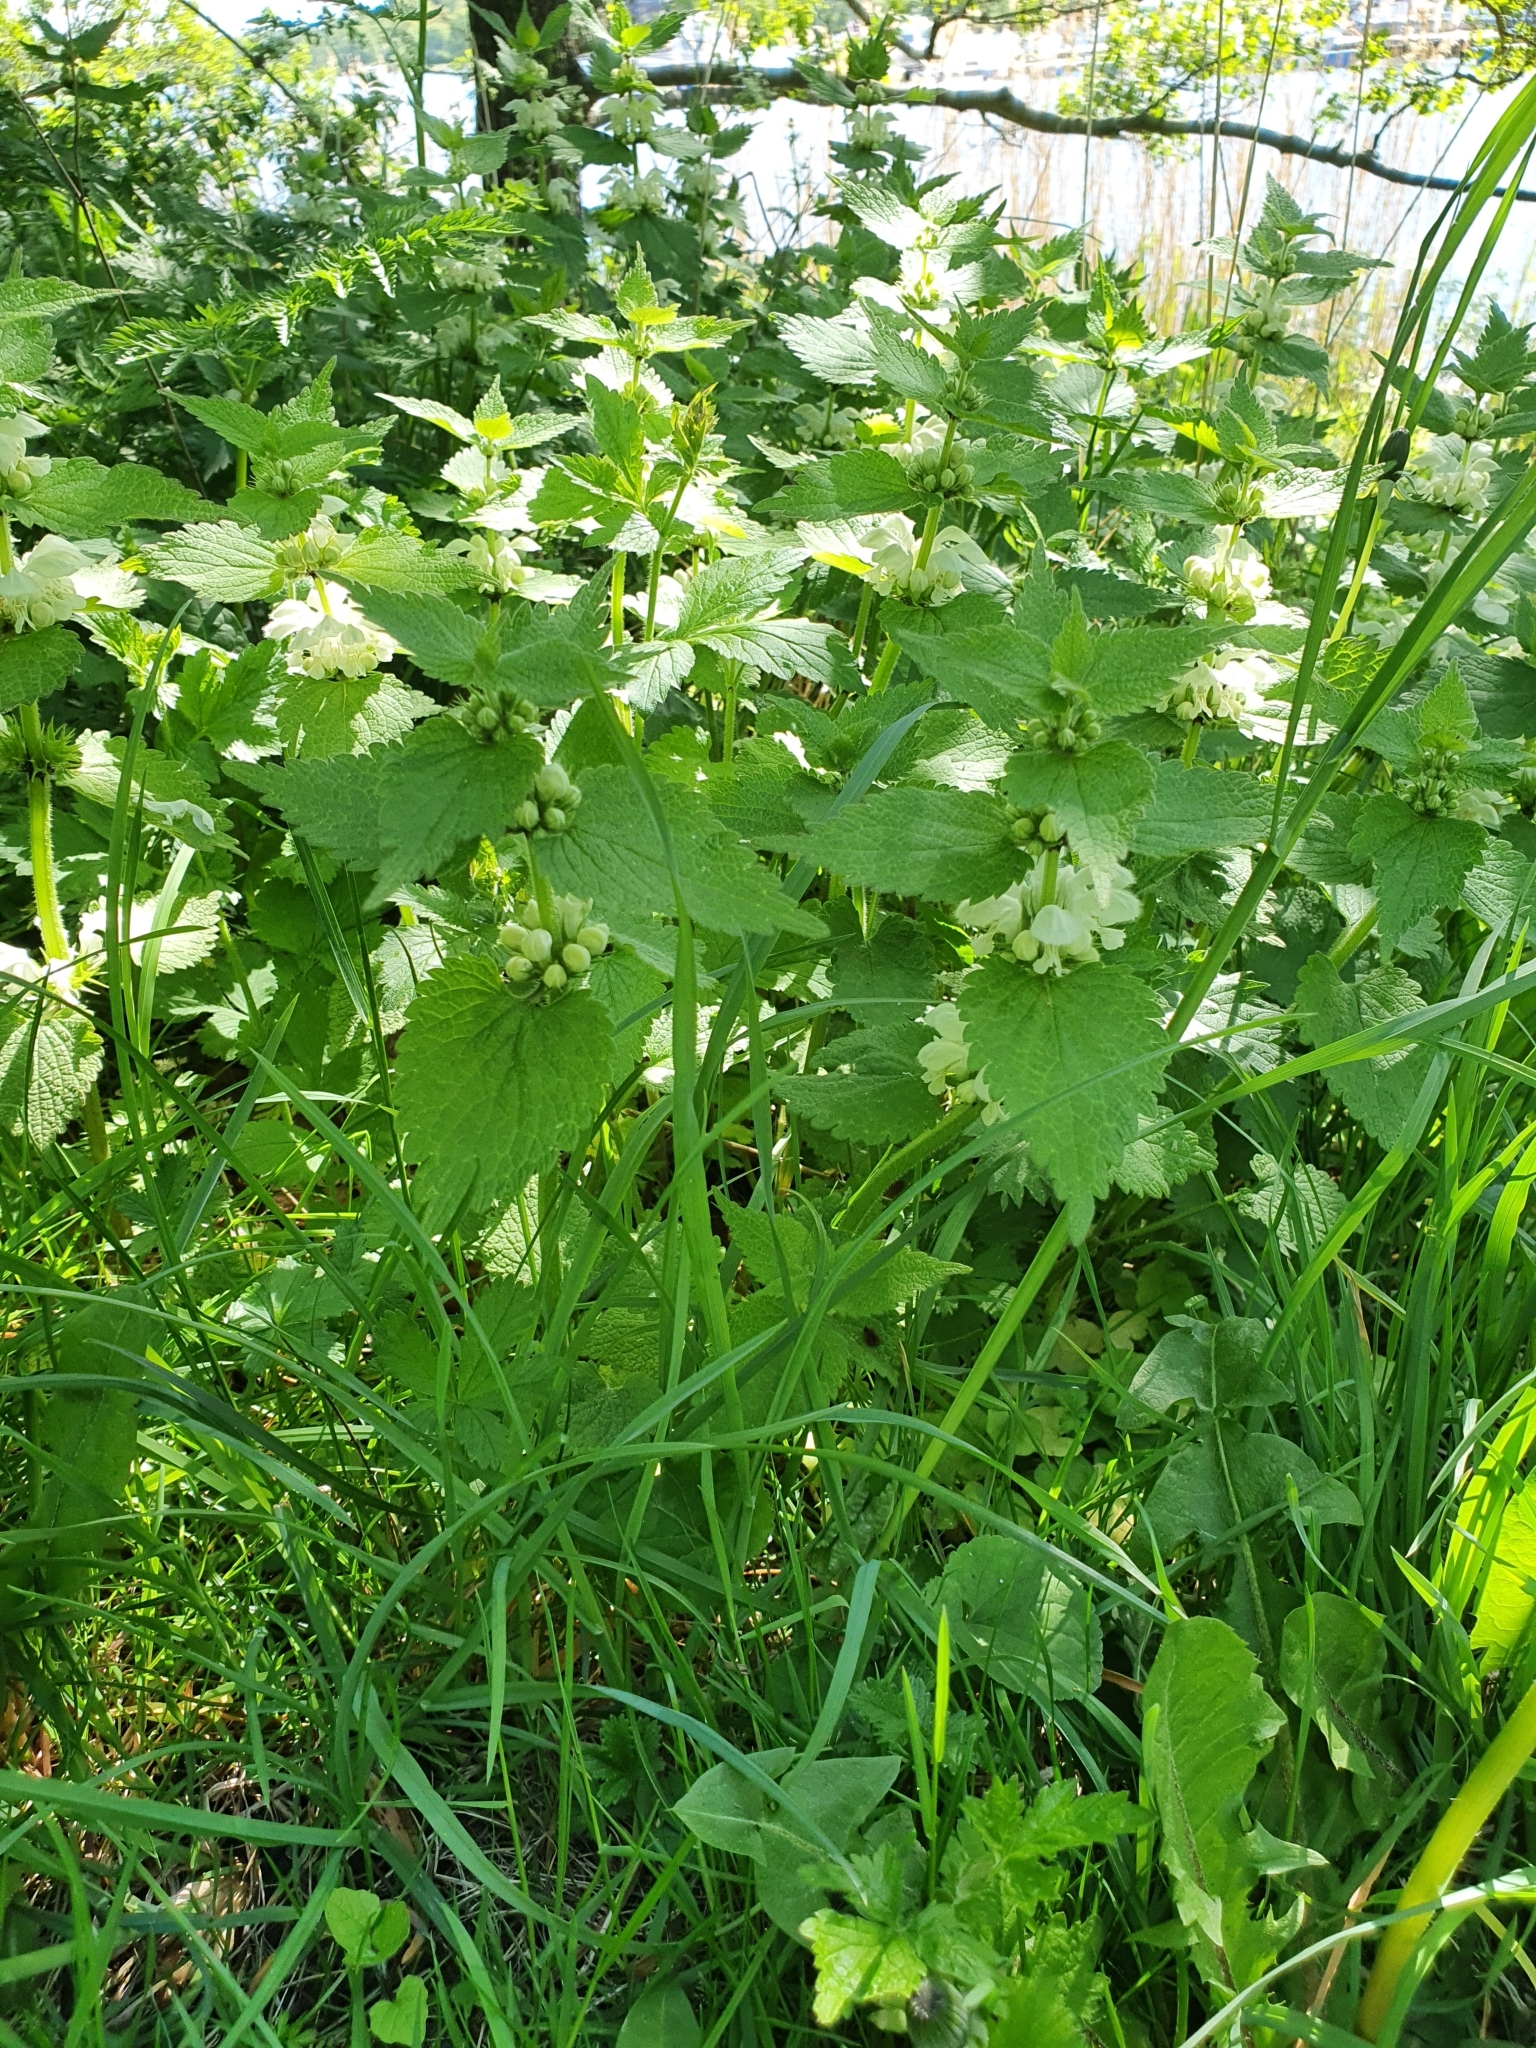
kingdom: Plantae
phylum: Tracheophyta
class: Magnoliopsida
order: Lamiales
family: Lamiaceae
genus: Lamium
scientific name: Lamium album
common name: White dead-nettle
